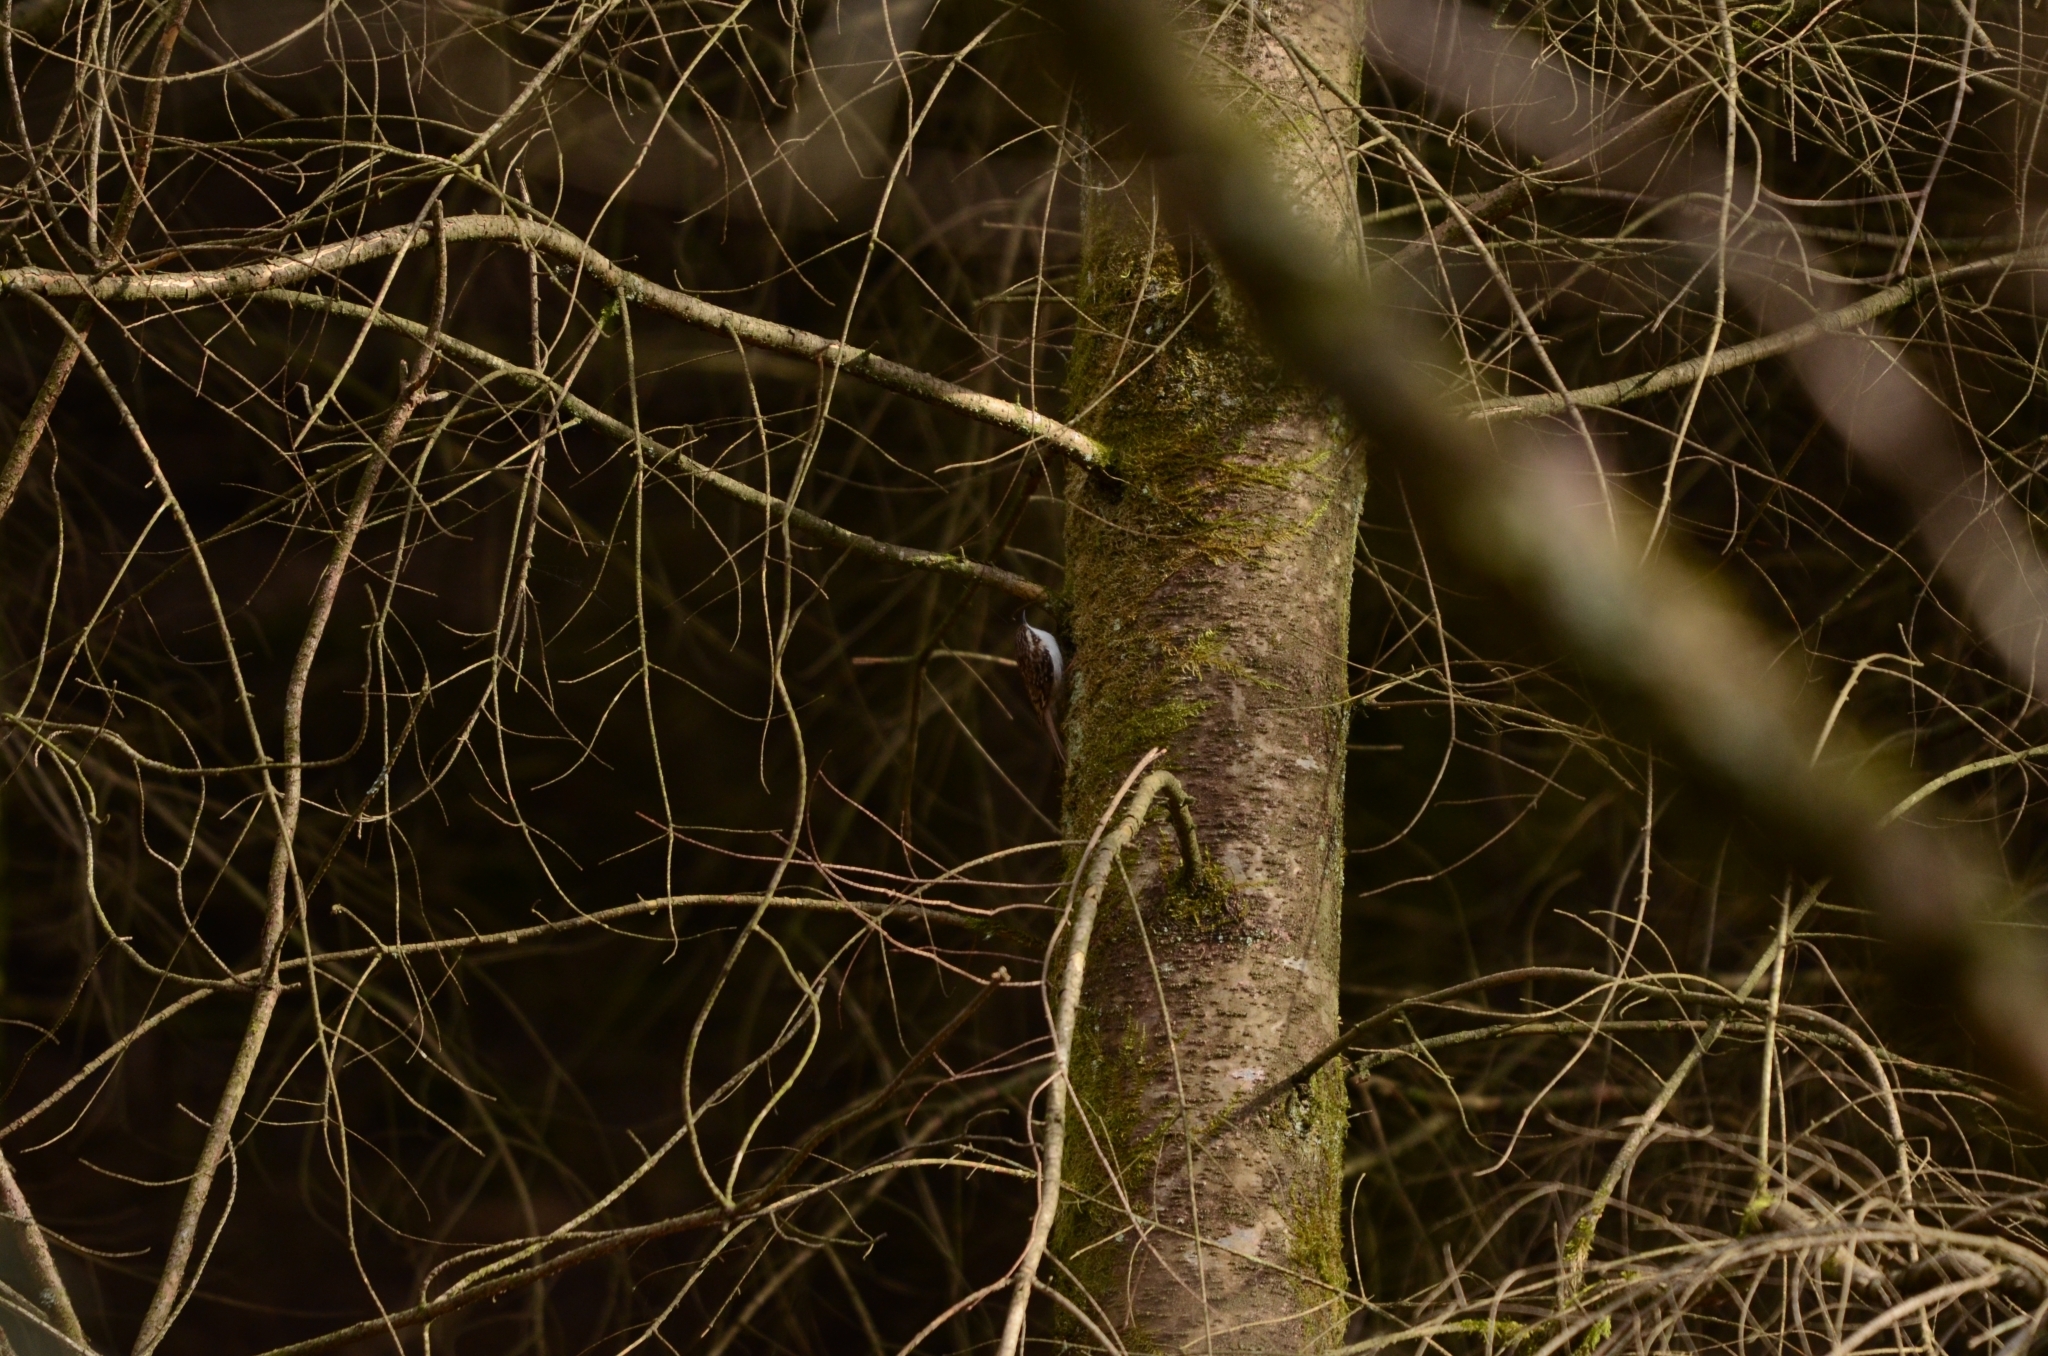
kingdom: Animalia
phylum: Chordata
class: Aves
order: Passeriformes
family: Certhiidae
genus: Certhia
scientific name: Certhia familiaris
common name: Eurasian treecreeper
